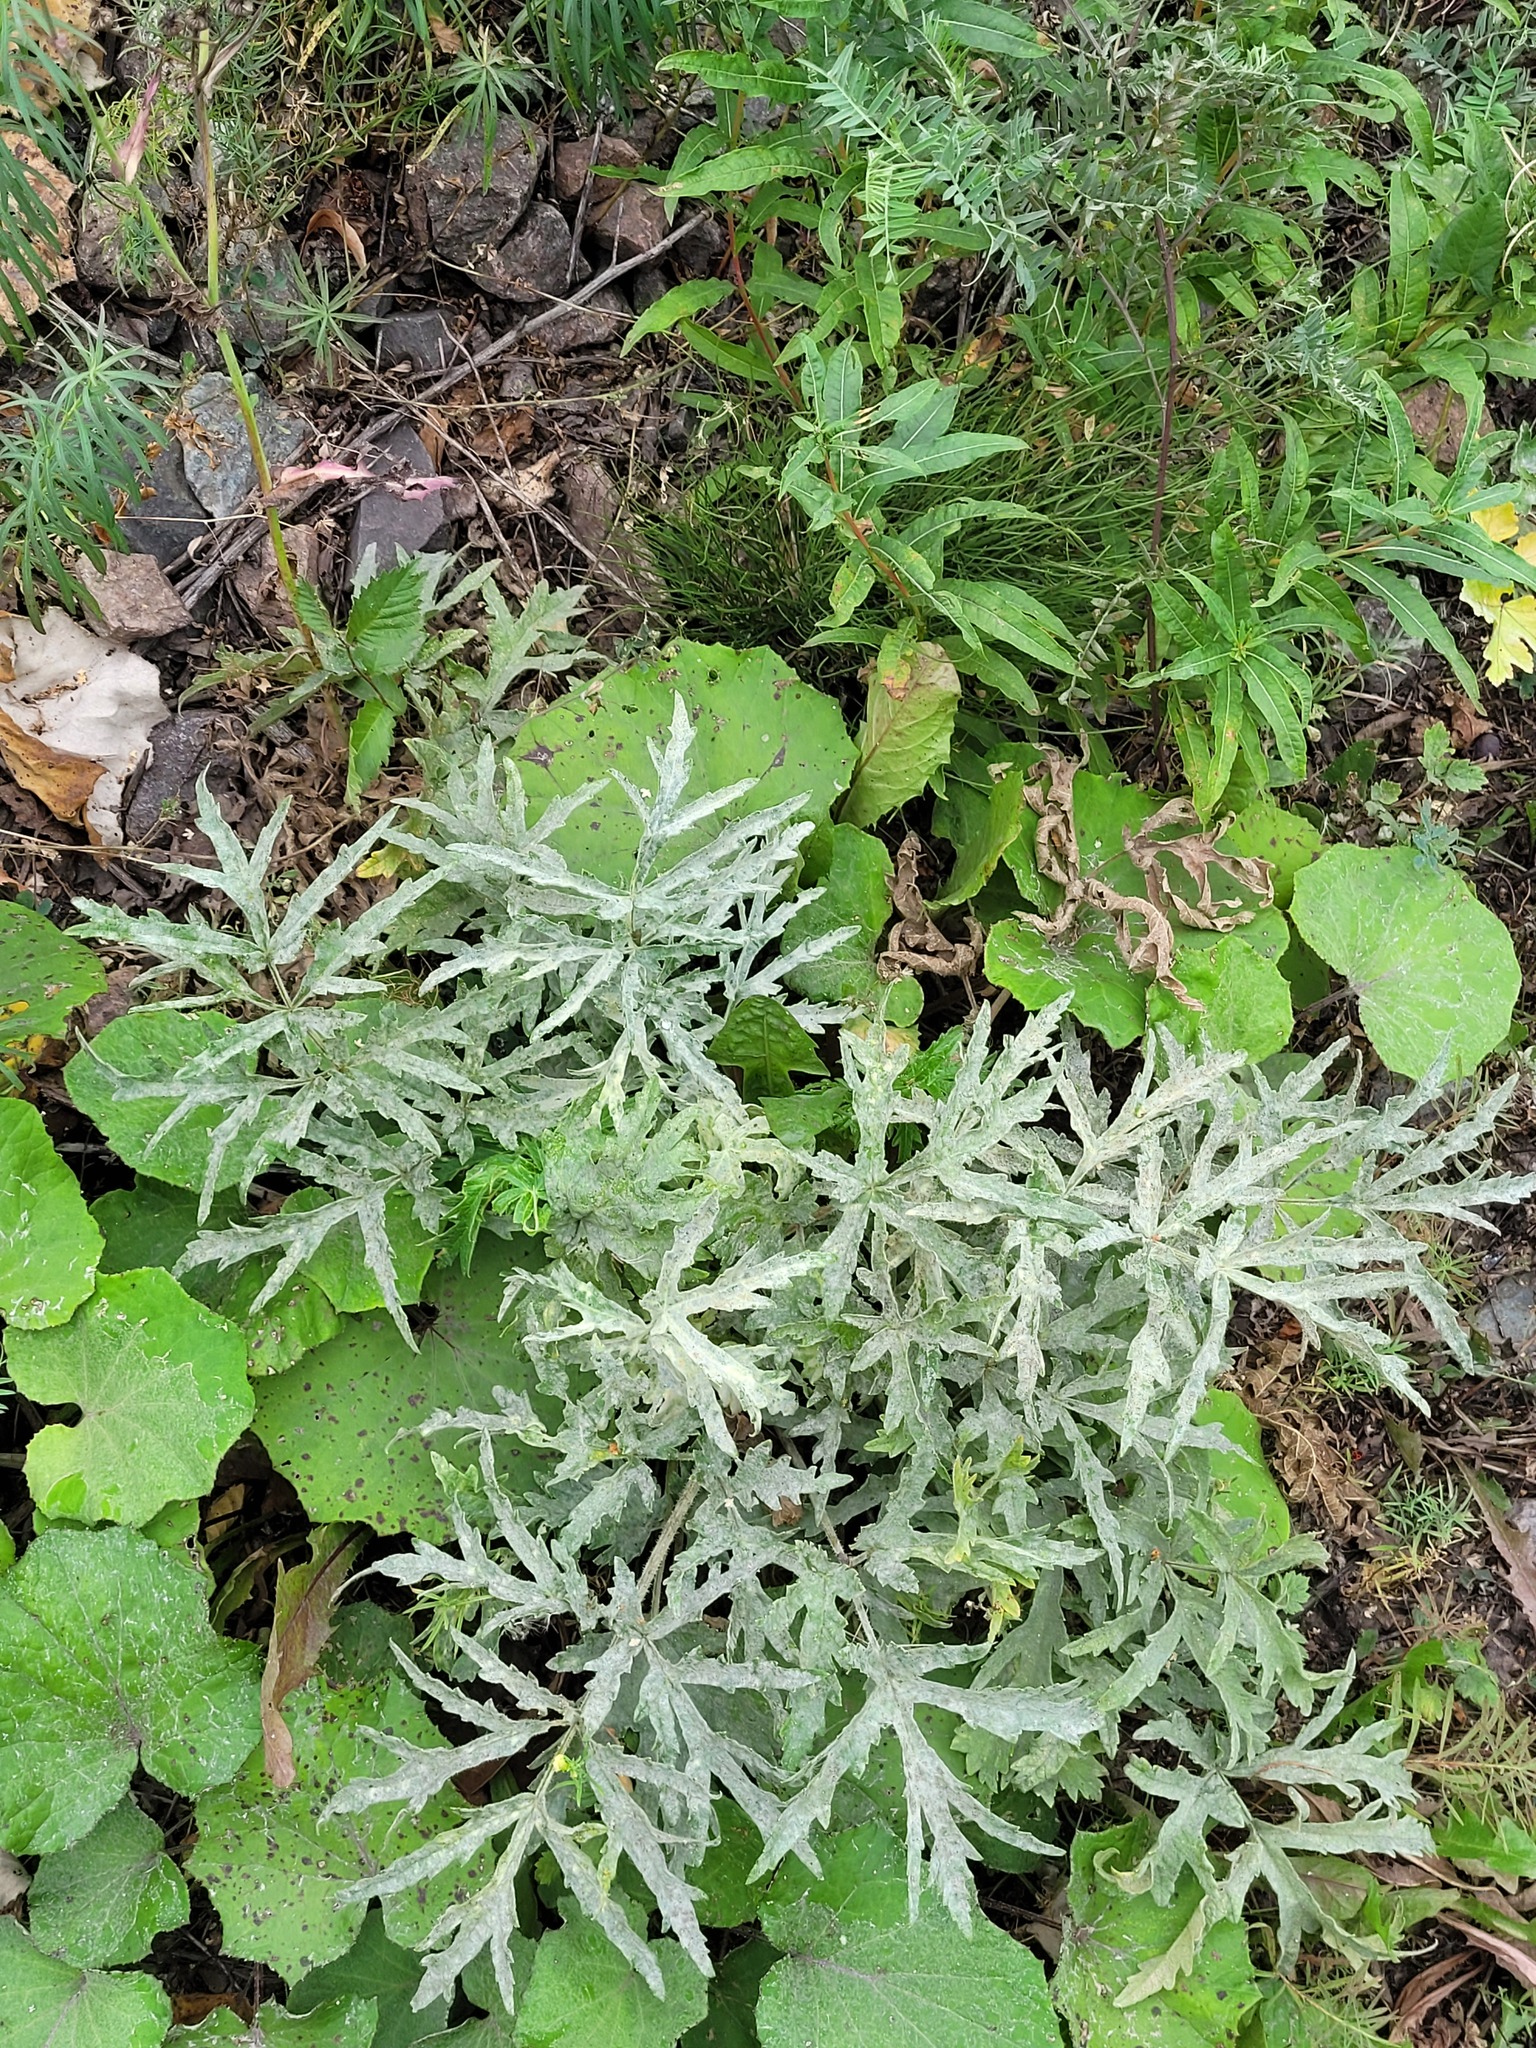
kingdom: Plantae
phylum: Tracheophyta
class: Magnoliopsida
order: Apiales
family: Apiaceae
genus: Heracleum
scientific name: Heracleum sphondylium
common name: Hogweed
